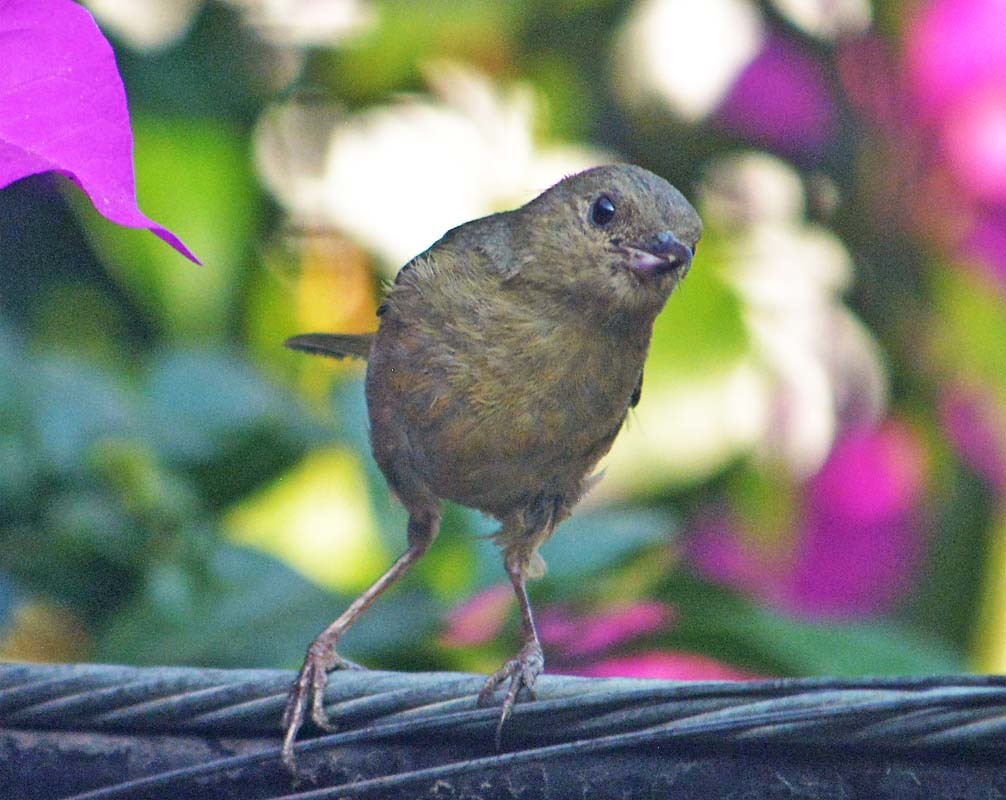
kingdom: Animalia
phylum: Chordata
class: Aves
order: Passeriformes
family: Thraupidae
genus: Diglossa
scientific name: Diglossa baritula
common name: Cinnamon-bellied flowerpiercer
